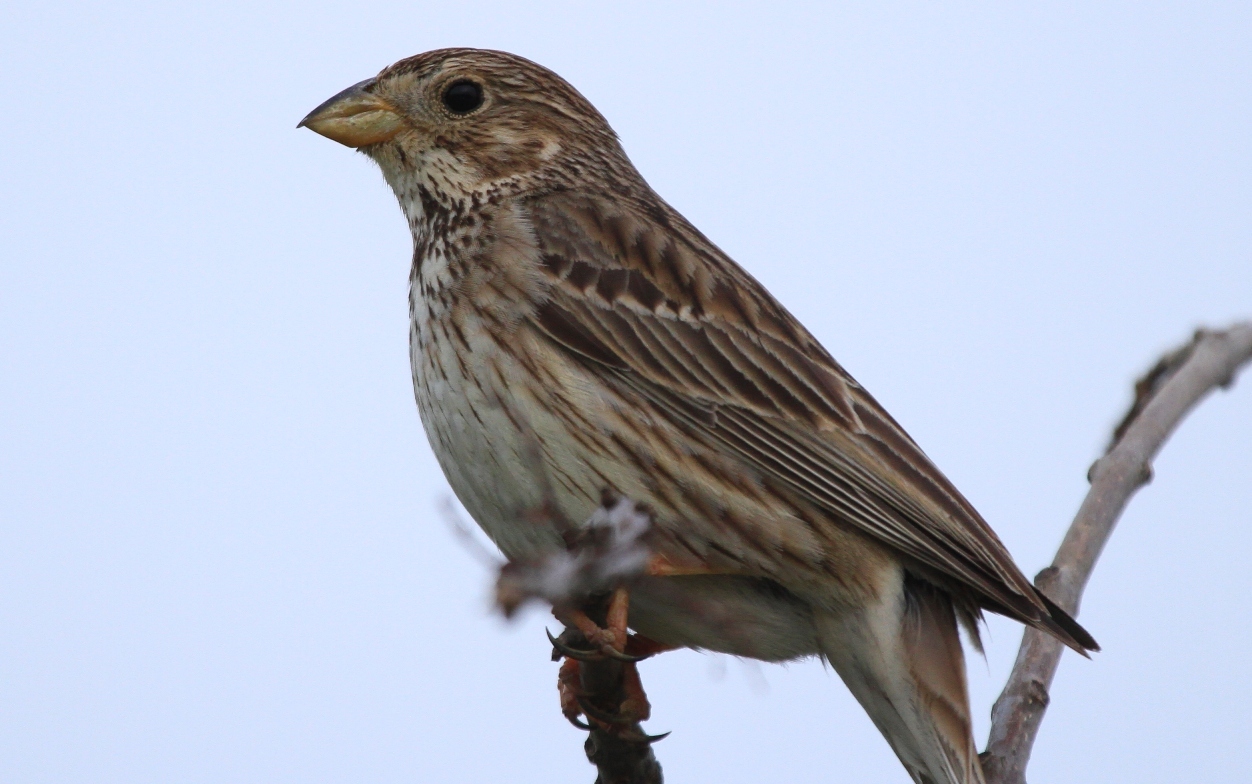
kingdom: Animalia
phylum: Chordata
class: Aves
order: Passeriformes
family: Emberizidae
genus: Emberiza
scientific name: Emberiza calandra
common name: Corn bunting
